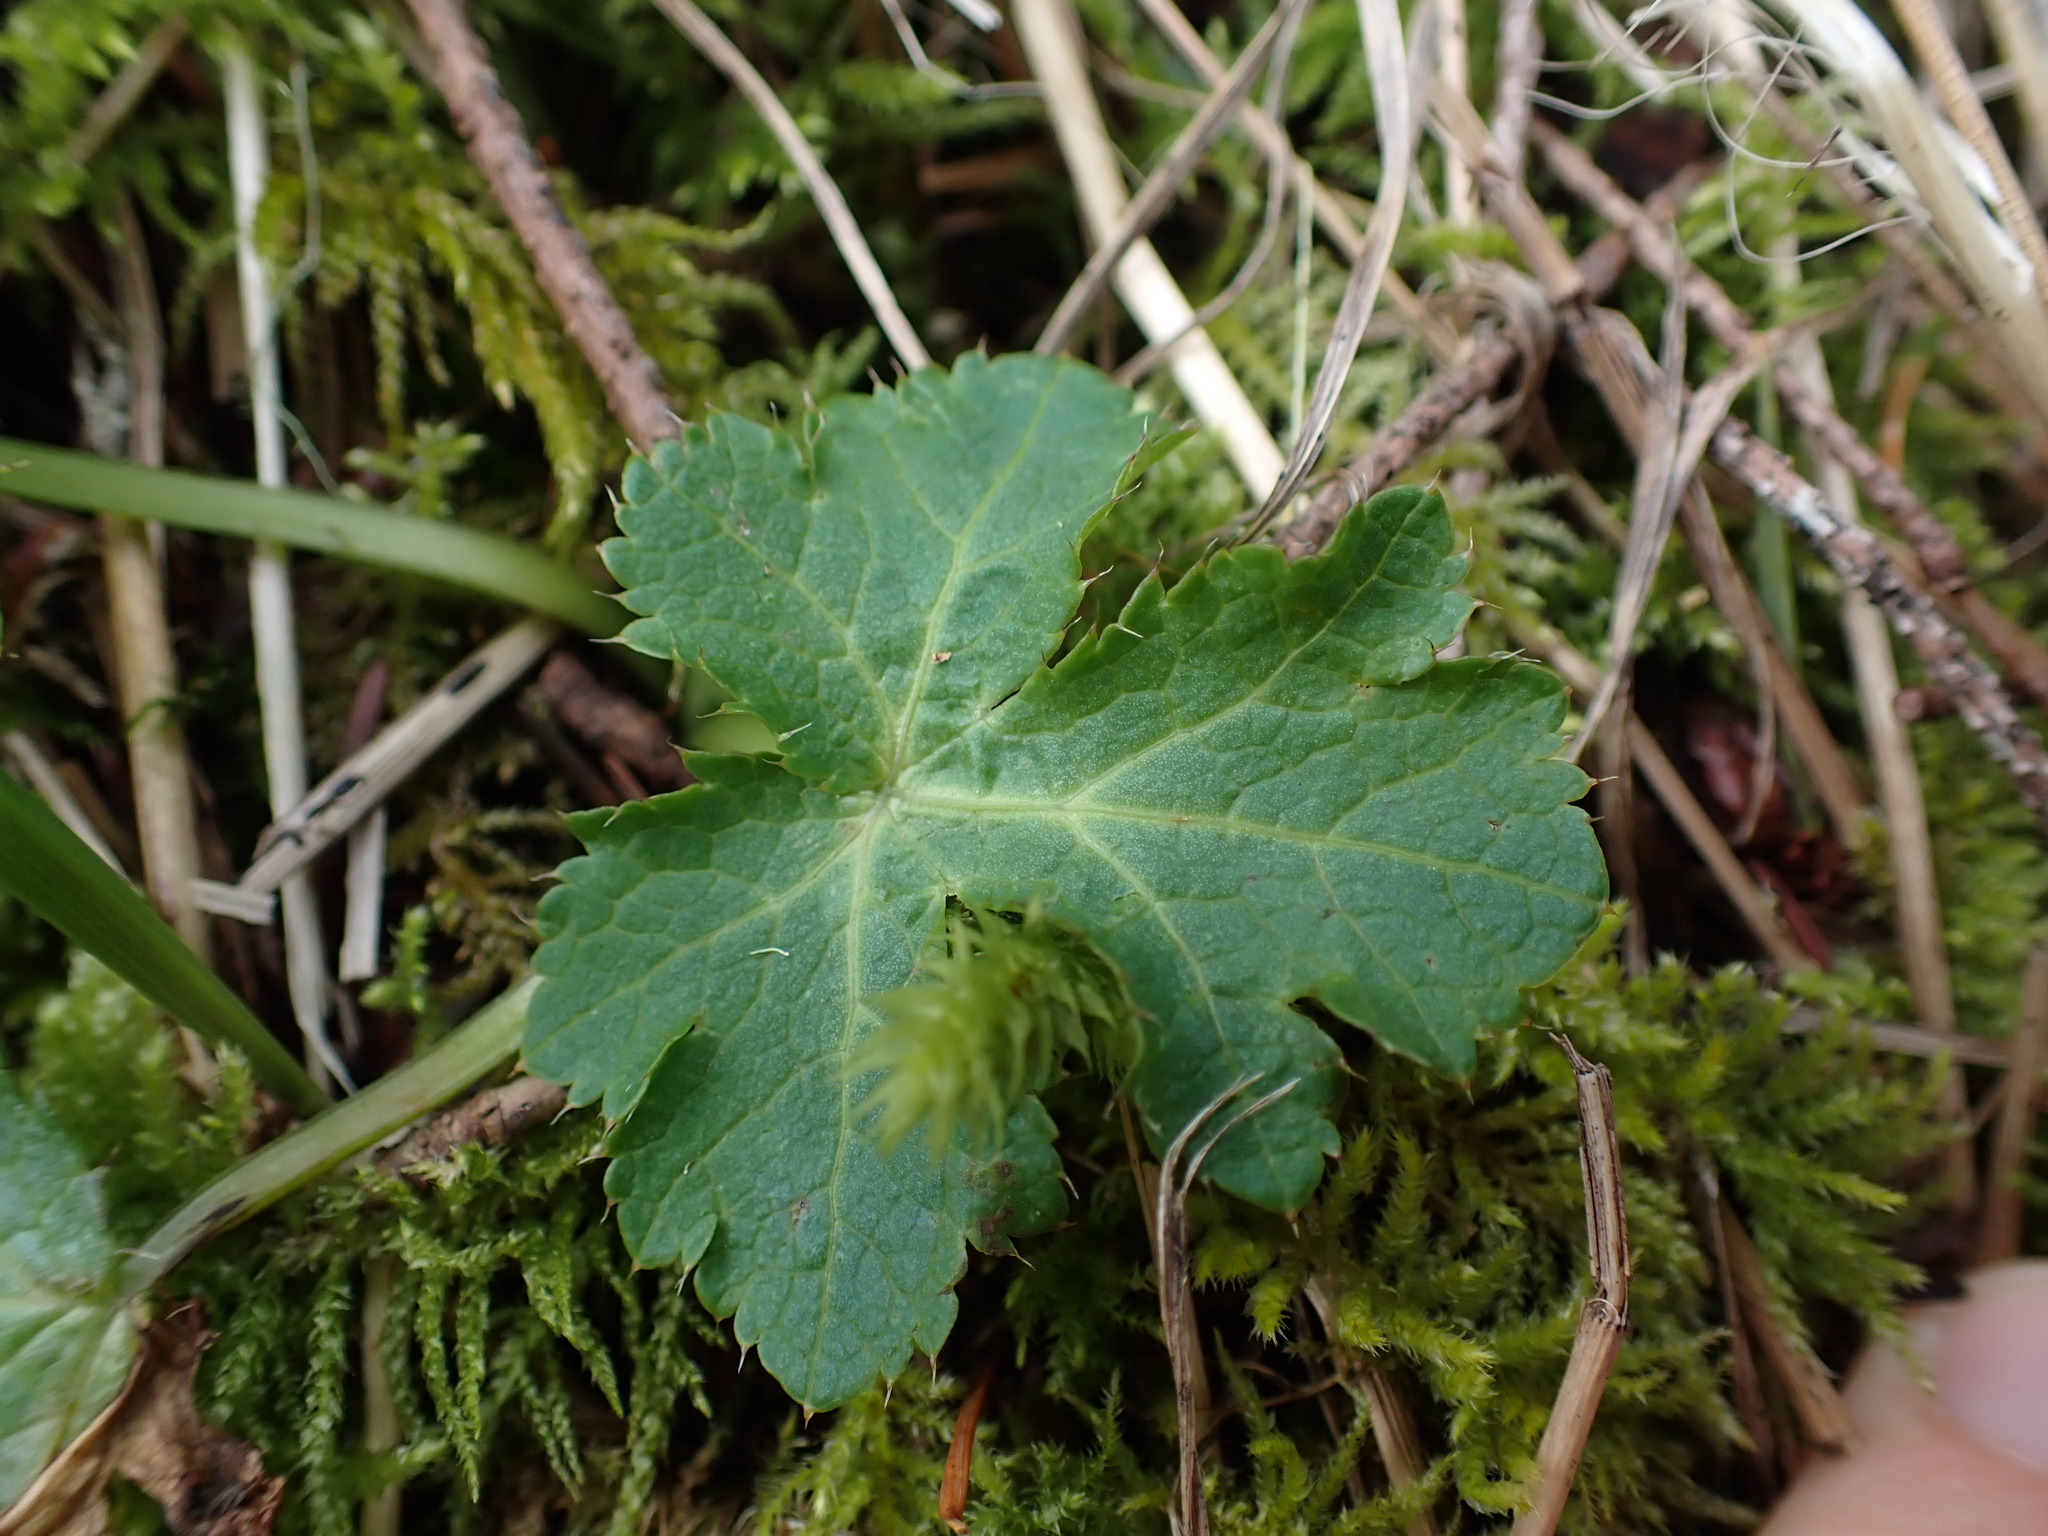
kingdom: Plantae
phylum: Tracheophyta
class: Magnoliopsida
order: Apiales
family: Apiaceae
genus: Sanicula
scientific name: Sanicula crassicaulis
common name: Western snakeroot
